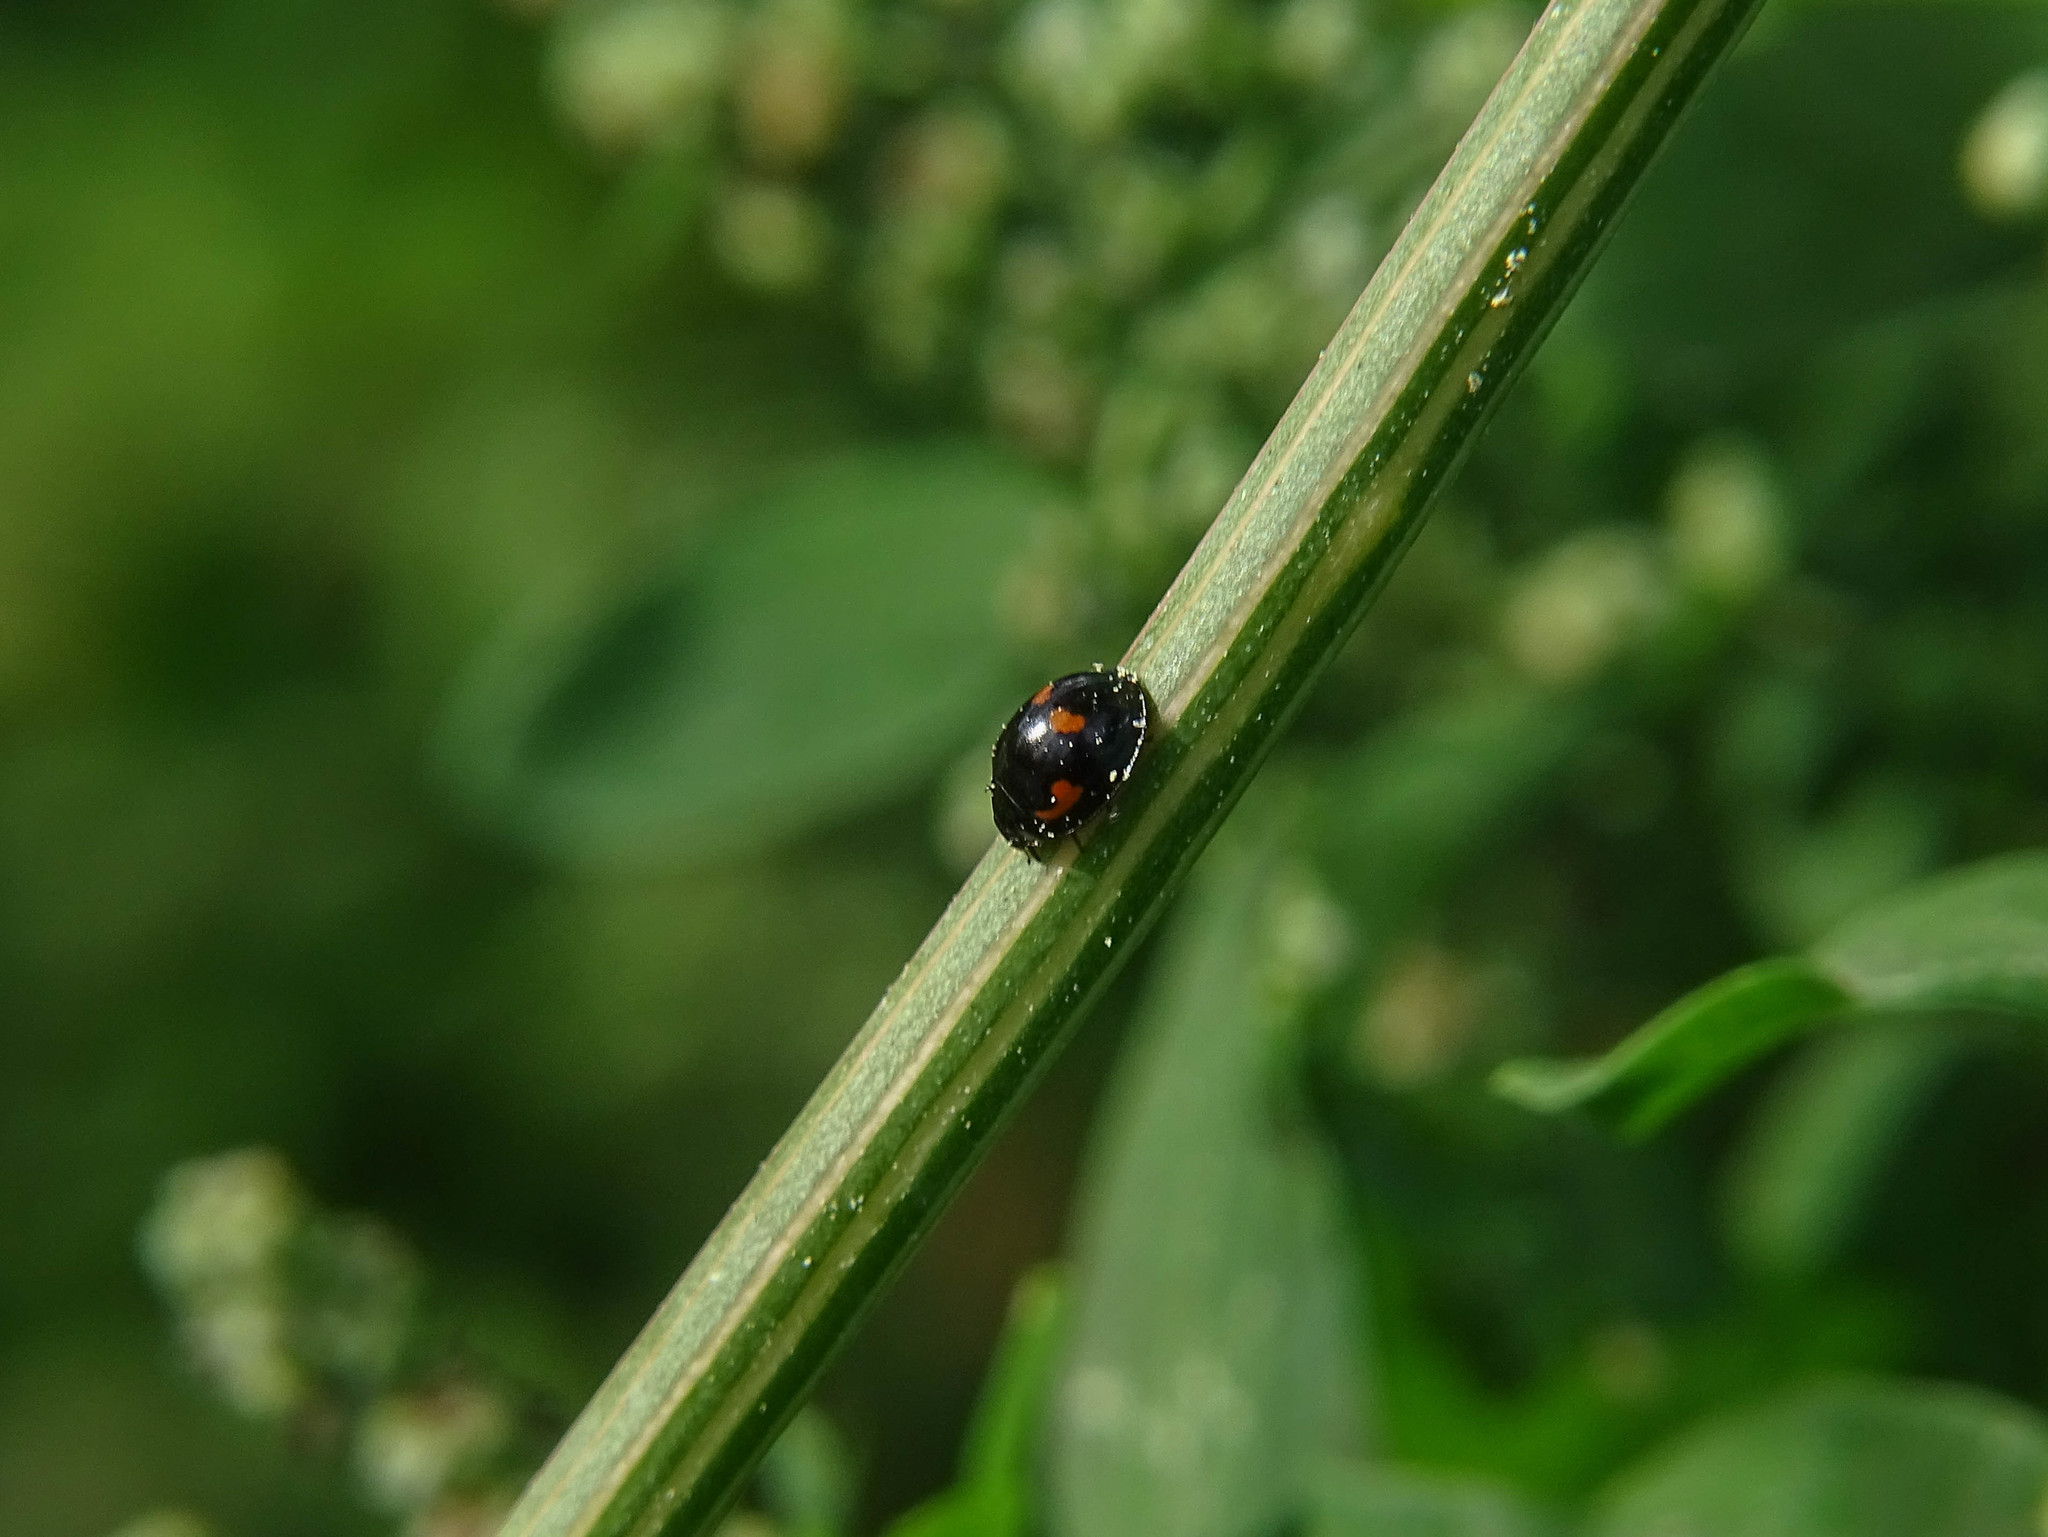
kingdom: Animalia
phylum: Arthropoda
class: Insecta
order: Coleoptera
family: Coccinellidae
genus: Brumus
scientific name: Brumus quadripustulatus
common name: Ladybird beetle
